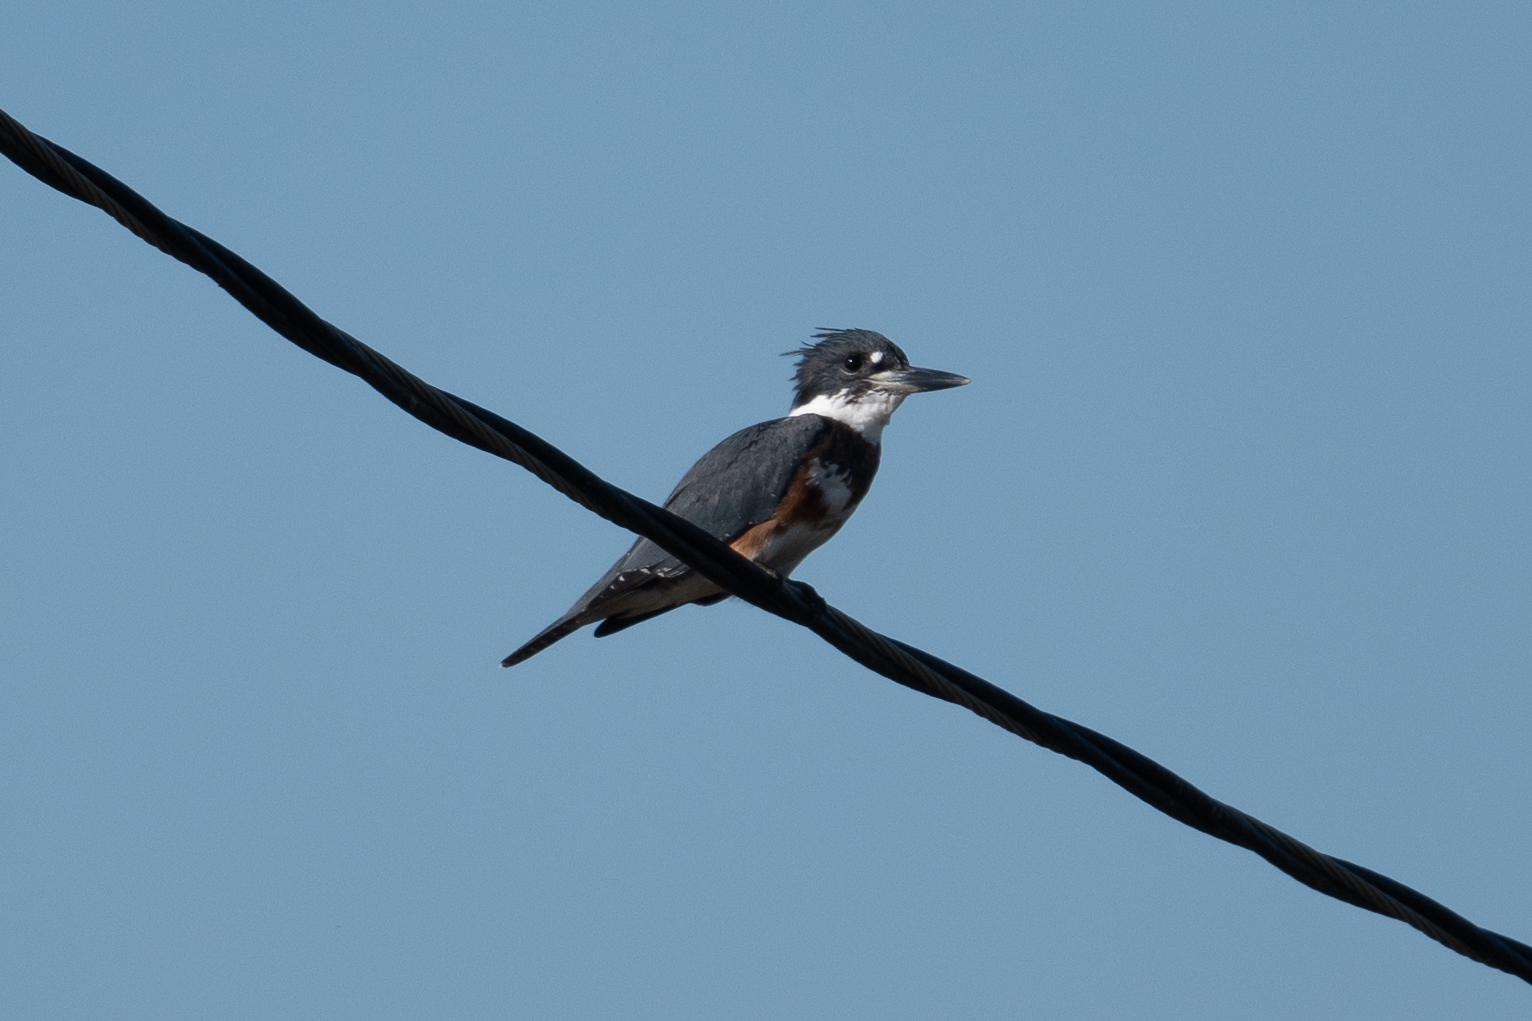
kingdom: Animalia
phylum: Chordata
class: Aves
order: Coraciiformes
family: Alcedinidae
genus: Megaceryle
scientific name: Megaceryle alcyon
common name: Belted kingfisher
